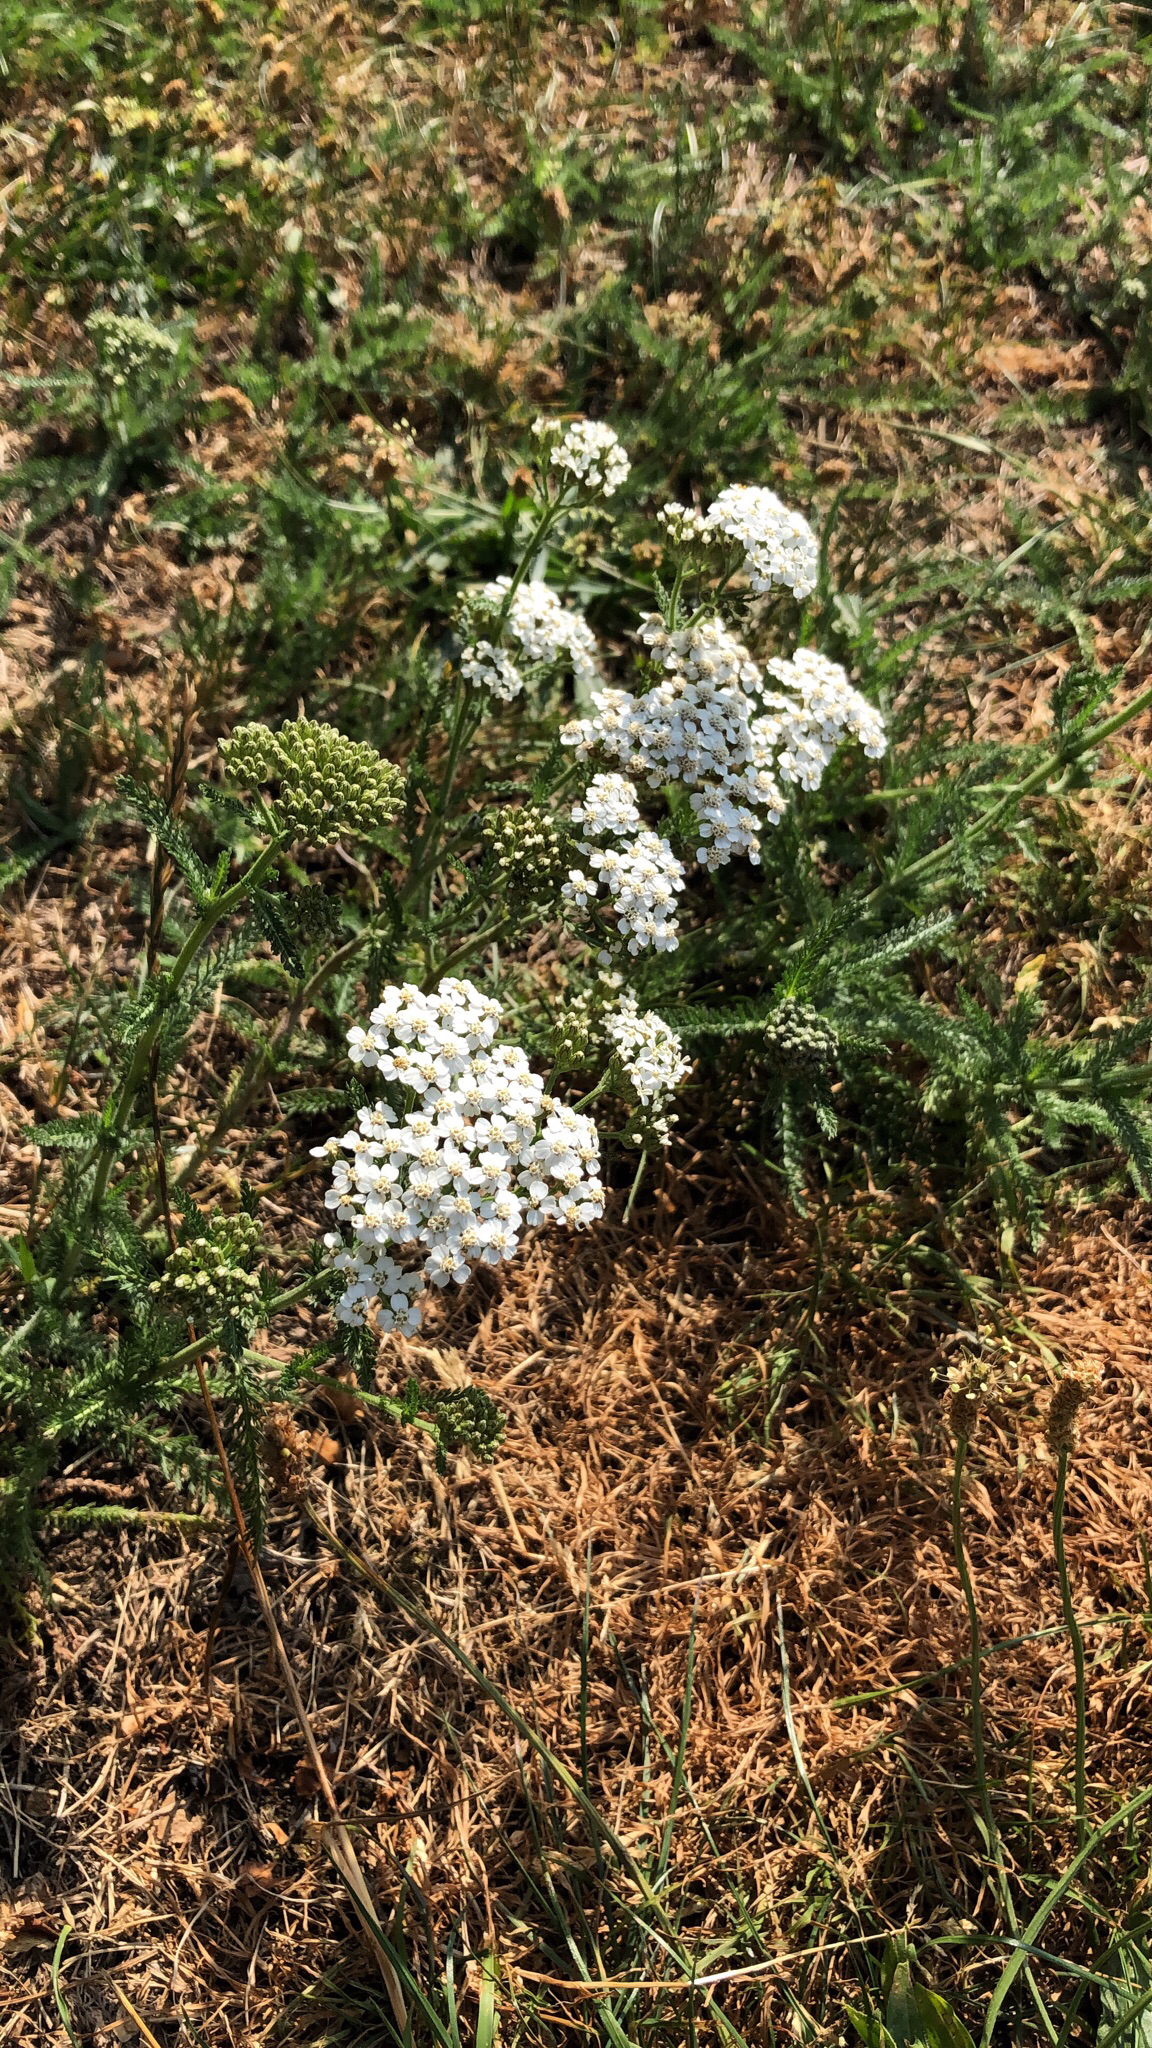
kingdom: Plantae
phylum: Tracheophyta
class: Magnoliopsida
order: Asterales
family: Asteraceae
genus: Achillea
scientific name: Achillea millefolium
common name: Yarrow
